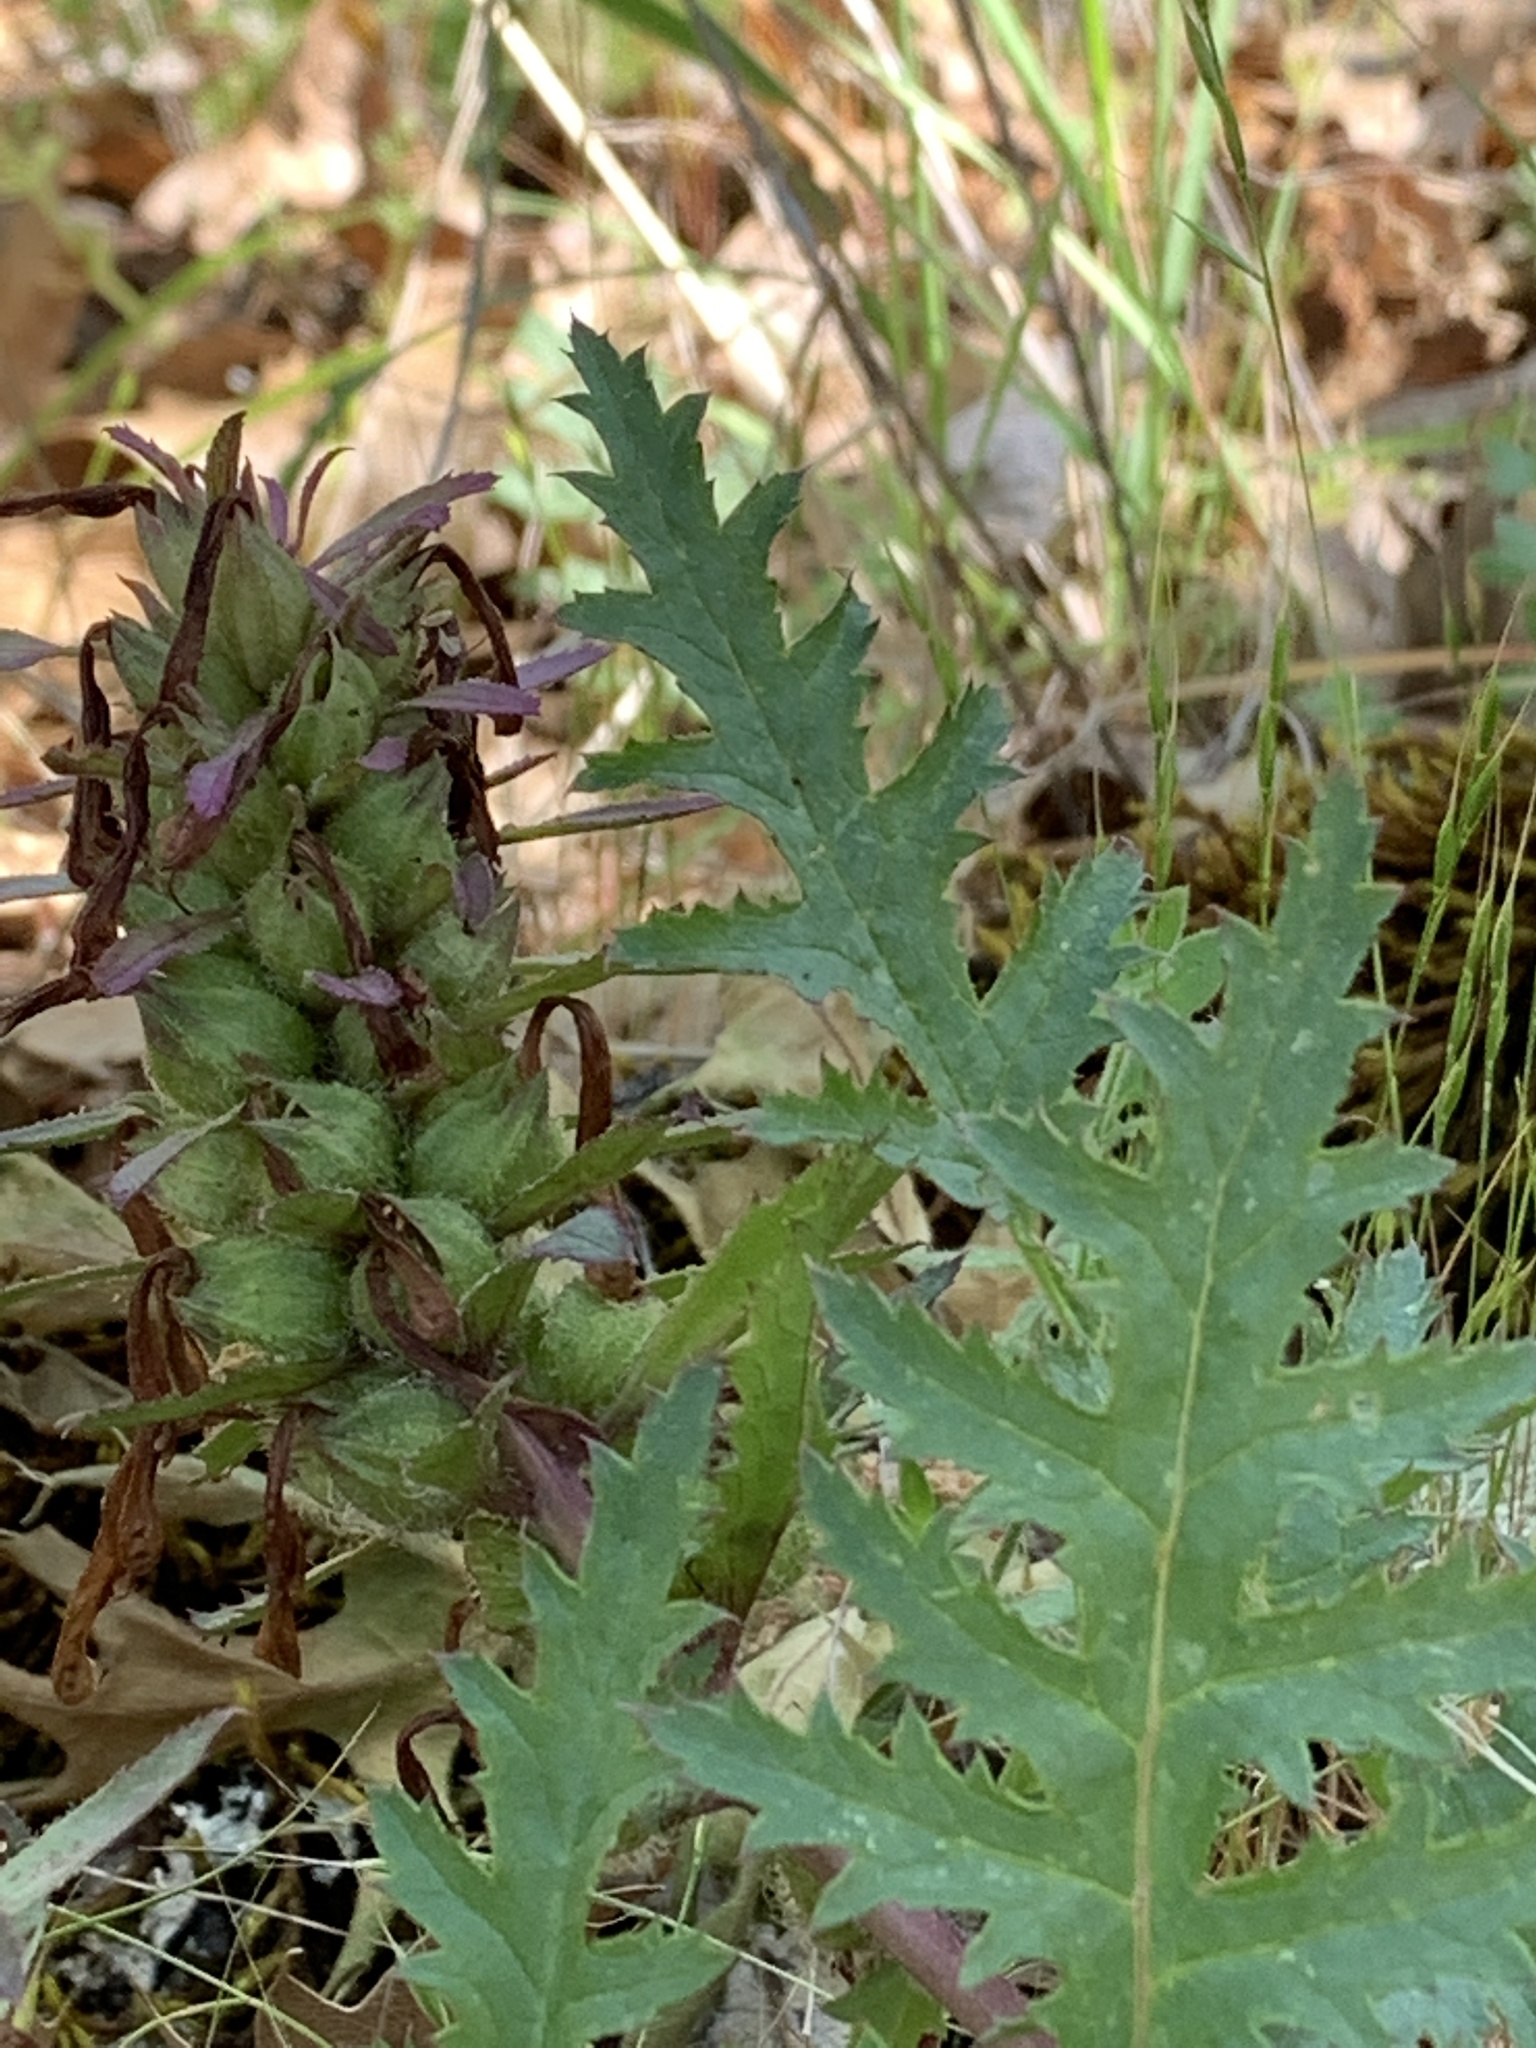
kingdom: Plantae
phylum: Tracheophyta
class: Magnoliopsida
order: Lamiales
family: Orobanchaceae
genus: Pedicularis
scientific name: Pedicularis densiflora
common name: Indian warrior
